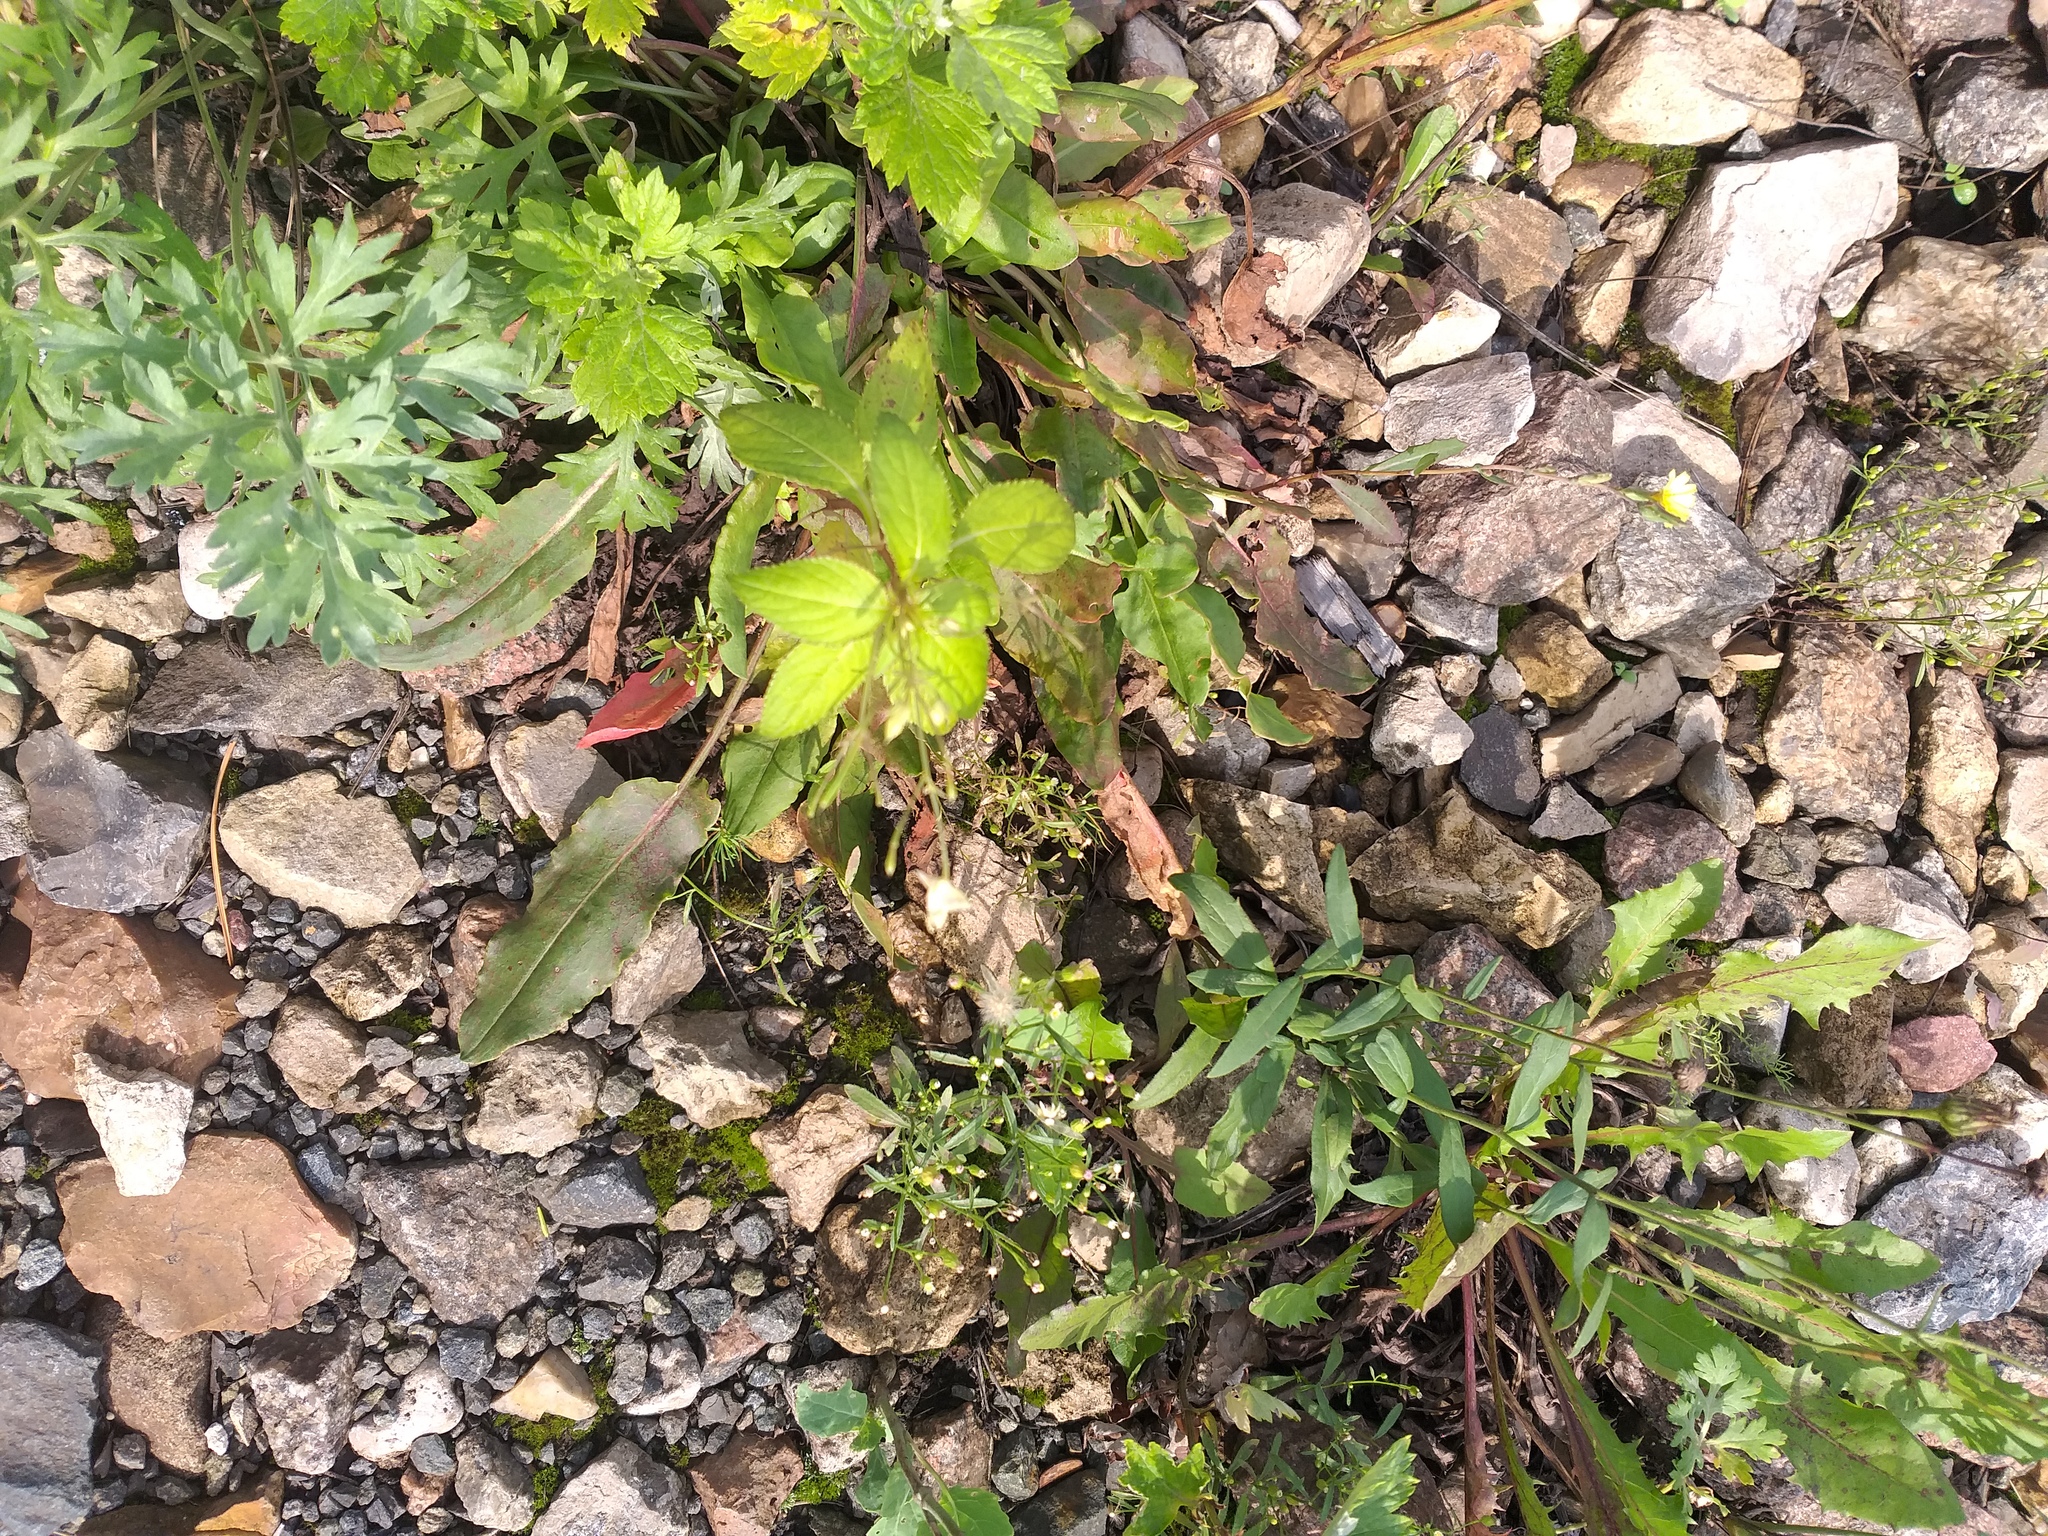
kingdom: Plantae
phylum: Tracheophyta
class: Magnoliopsida
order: Ericales
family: Balsaminaceae
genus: Impatiens
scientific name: Impatiens parviflora
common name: Small balsam
